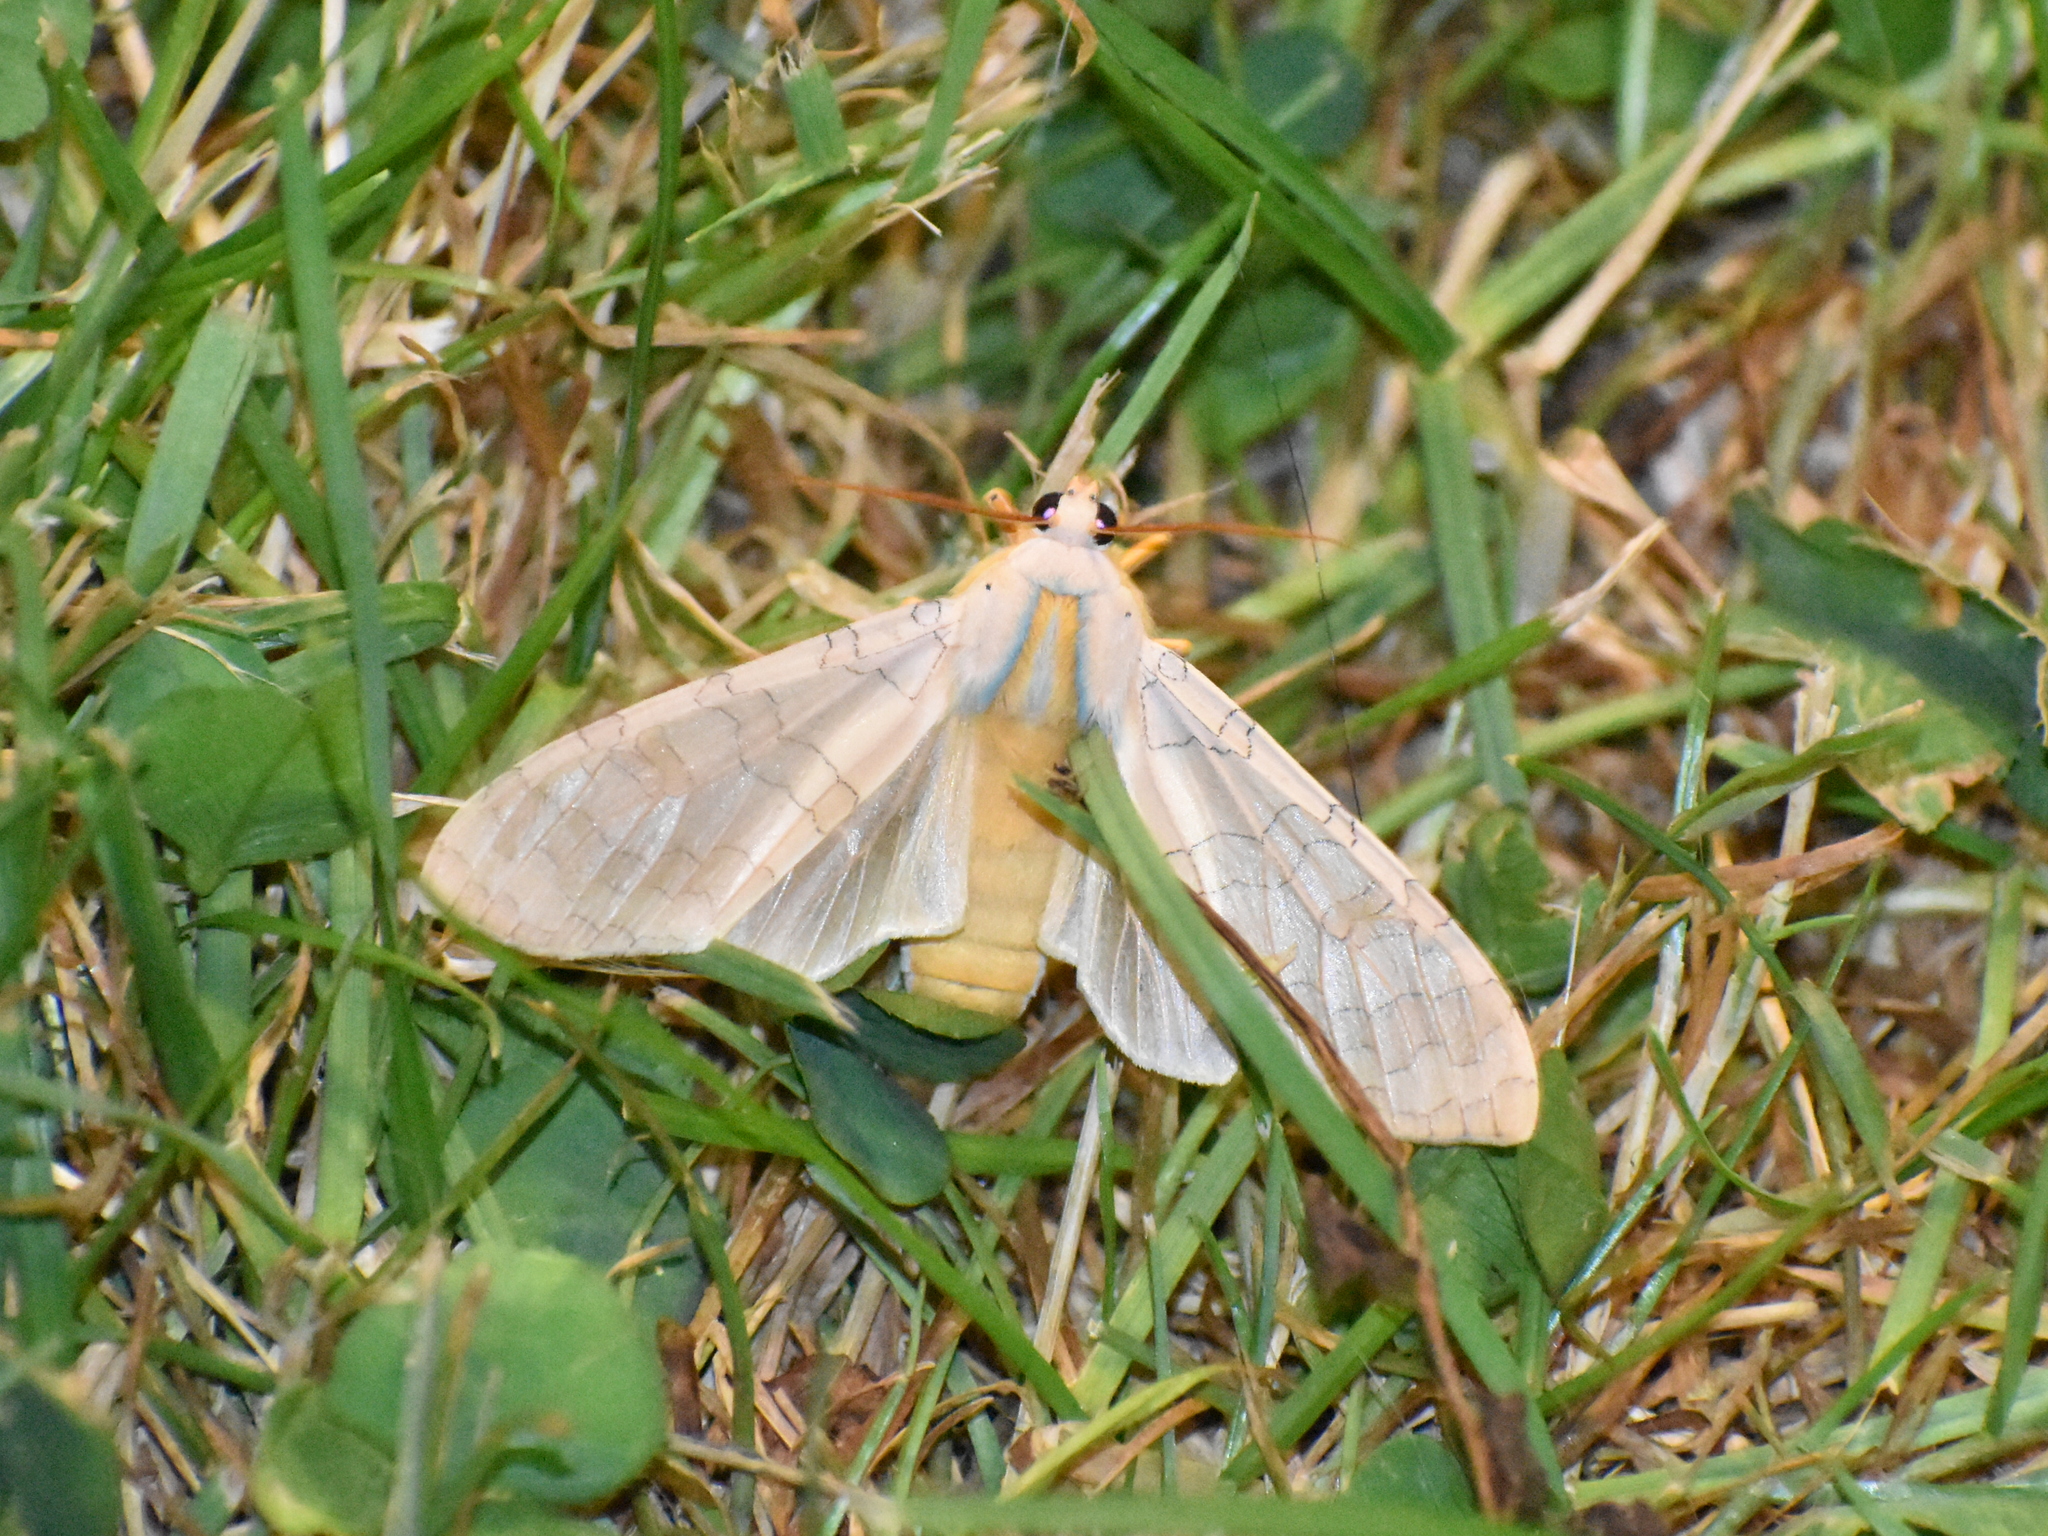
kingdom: Animalia
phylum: Arthropoda
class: Insecta
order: Lepidoptera
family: Erebidae
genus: Halysidota
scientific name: Halysidota
